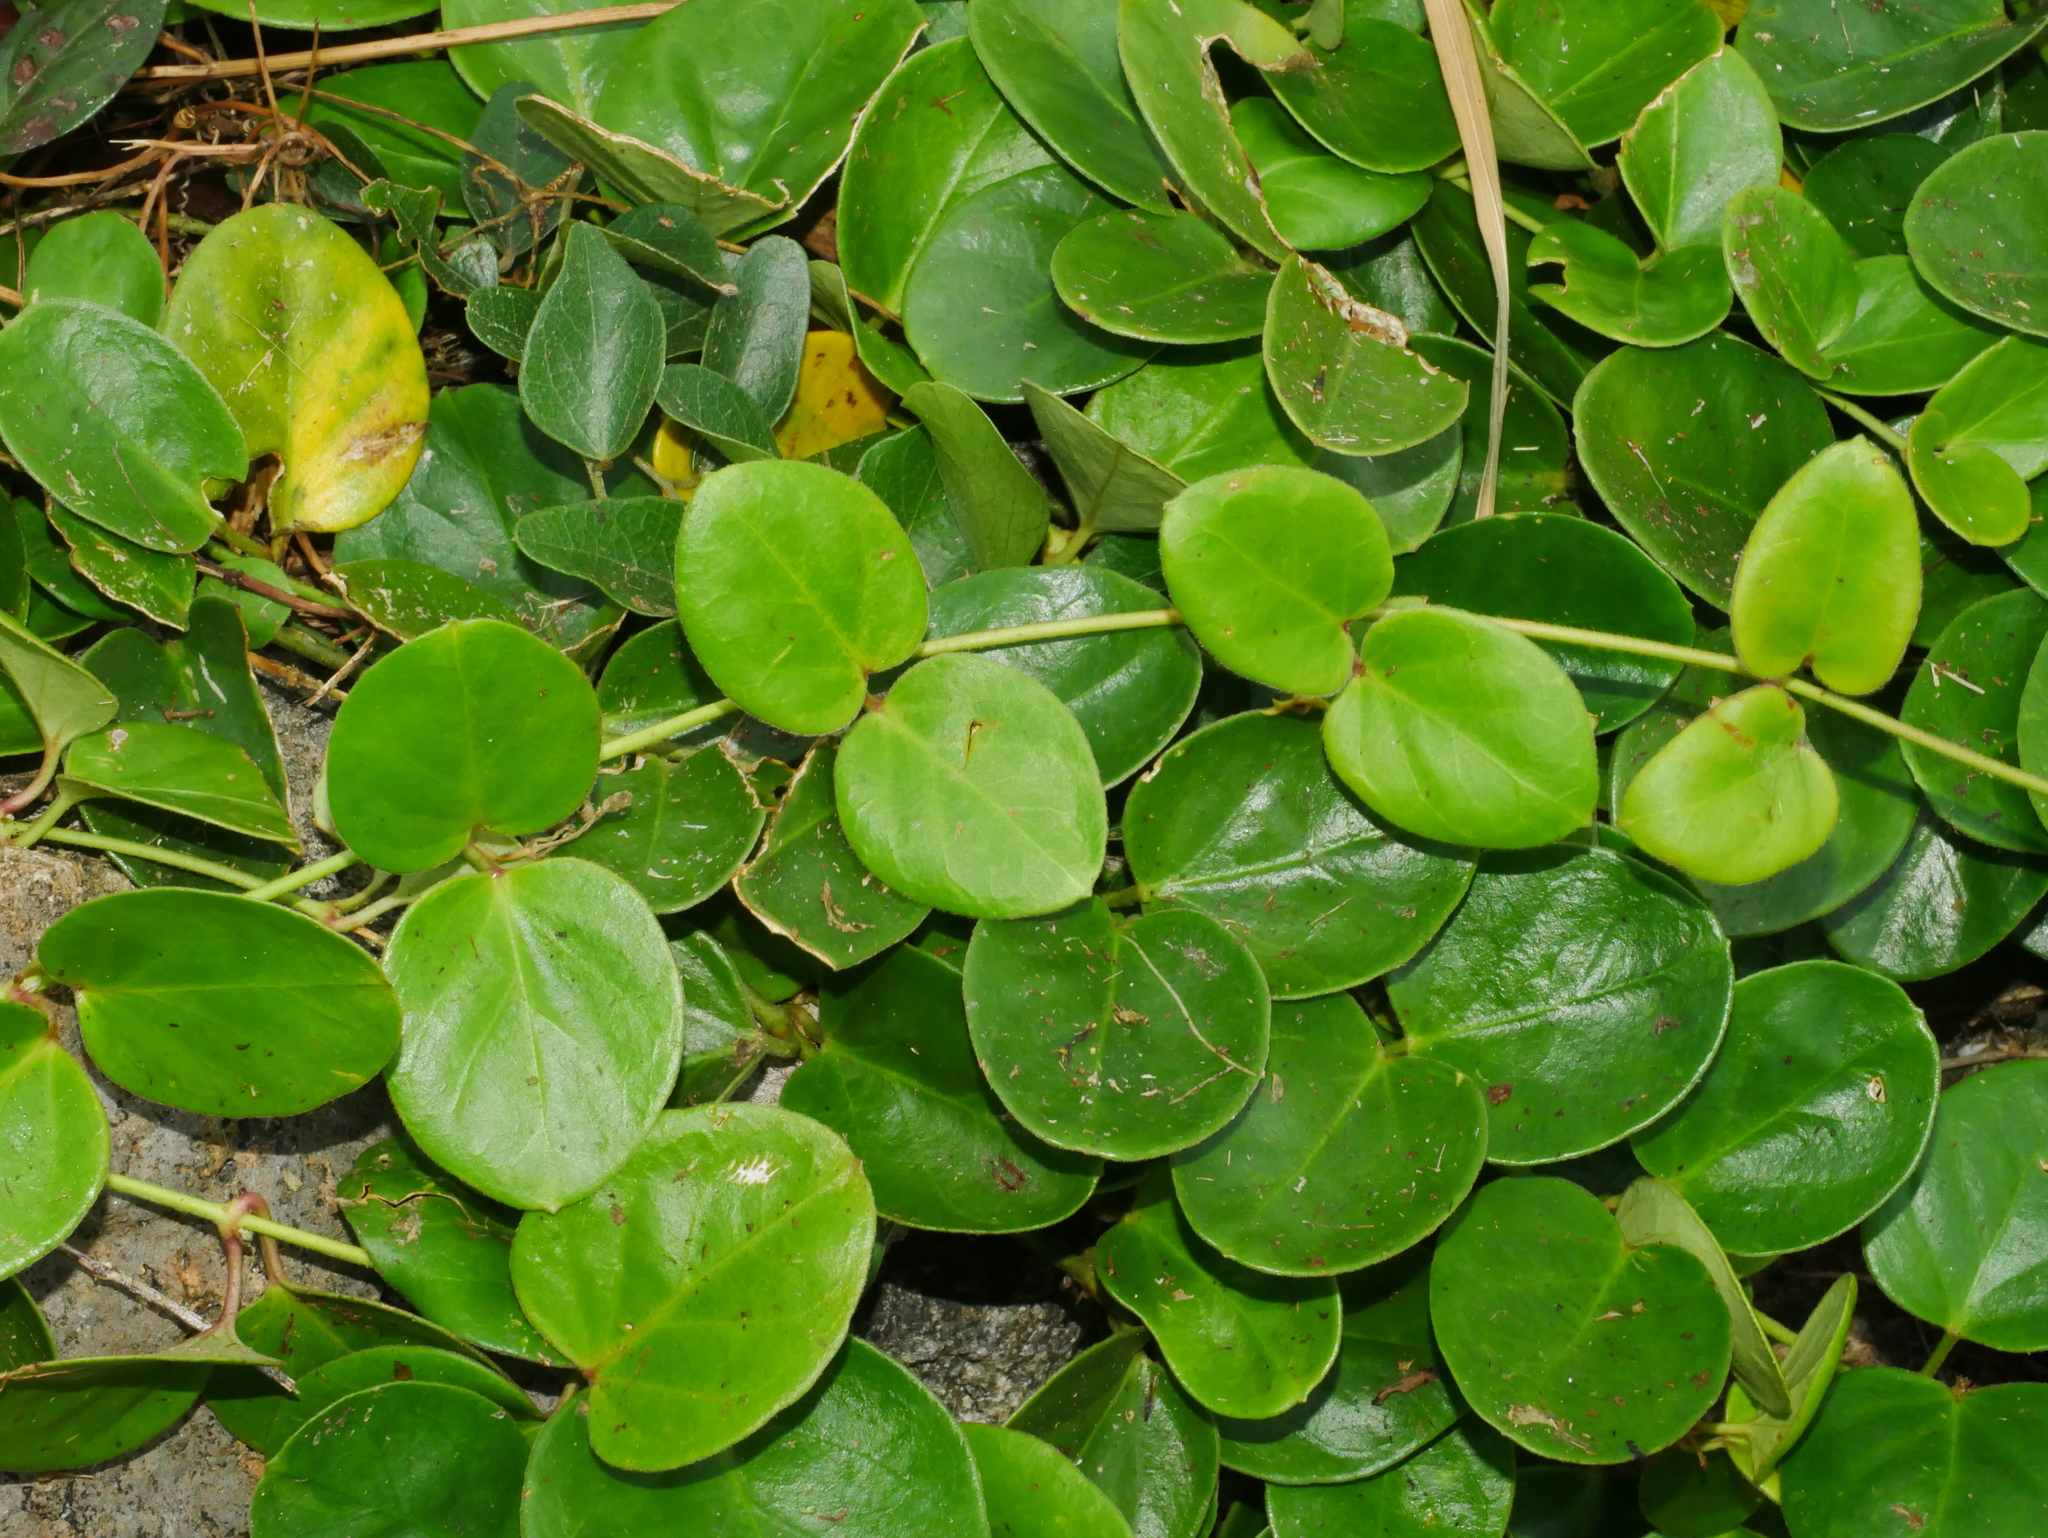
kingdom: Plantae
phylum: Tracheophyta
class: Magnoliopsida
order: Gentianales
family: Apocynaceae
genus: Vincetoxicum
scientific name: Vincetoxicum sui
